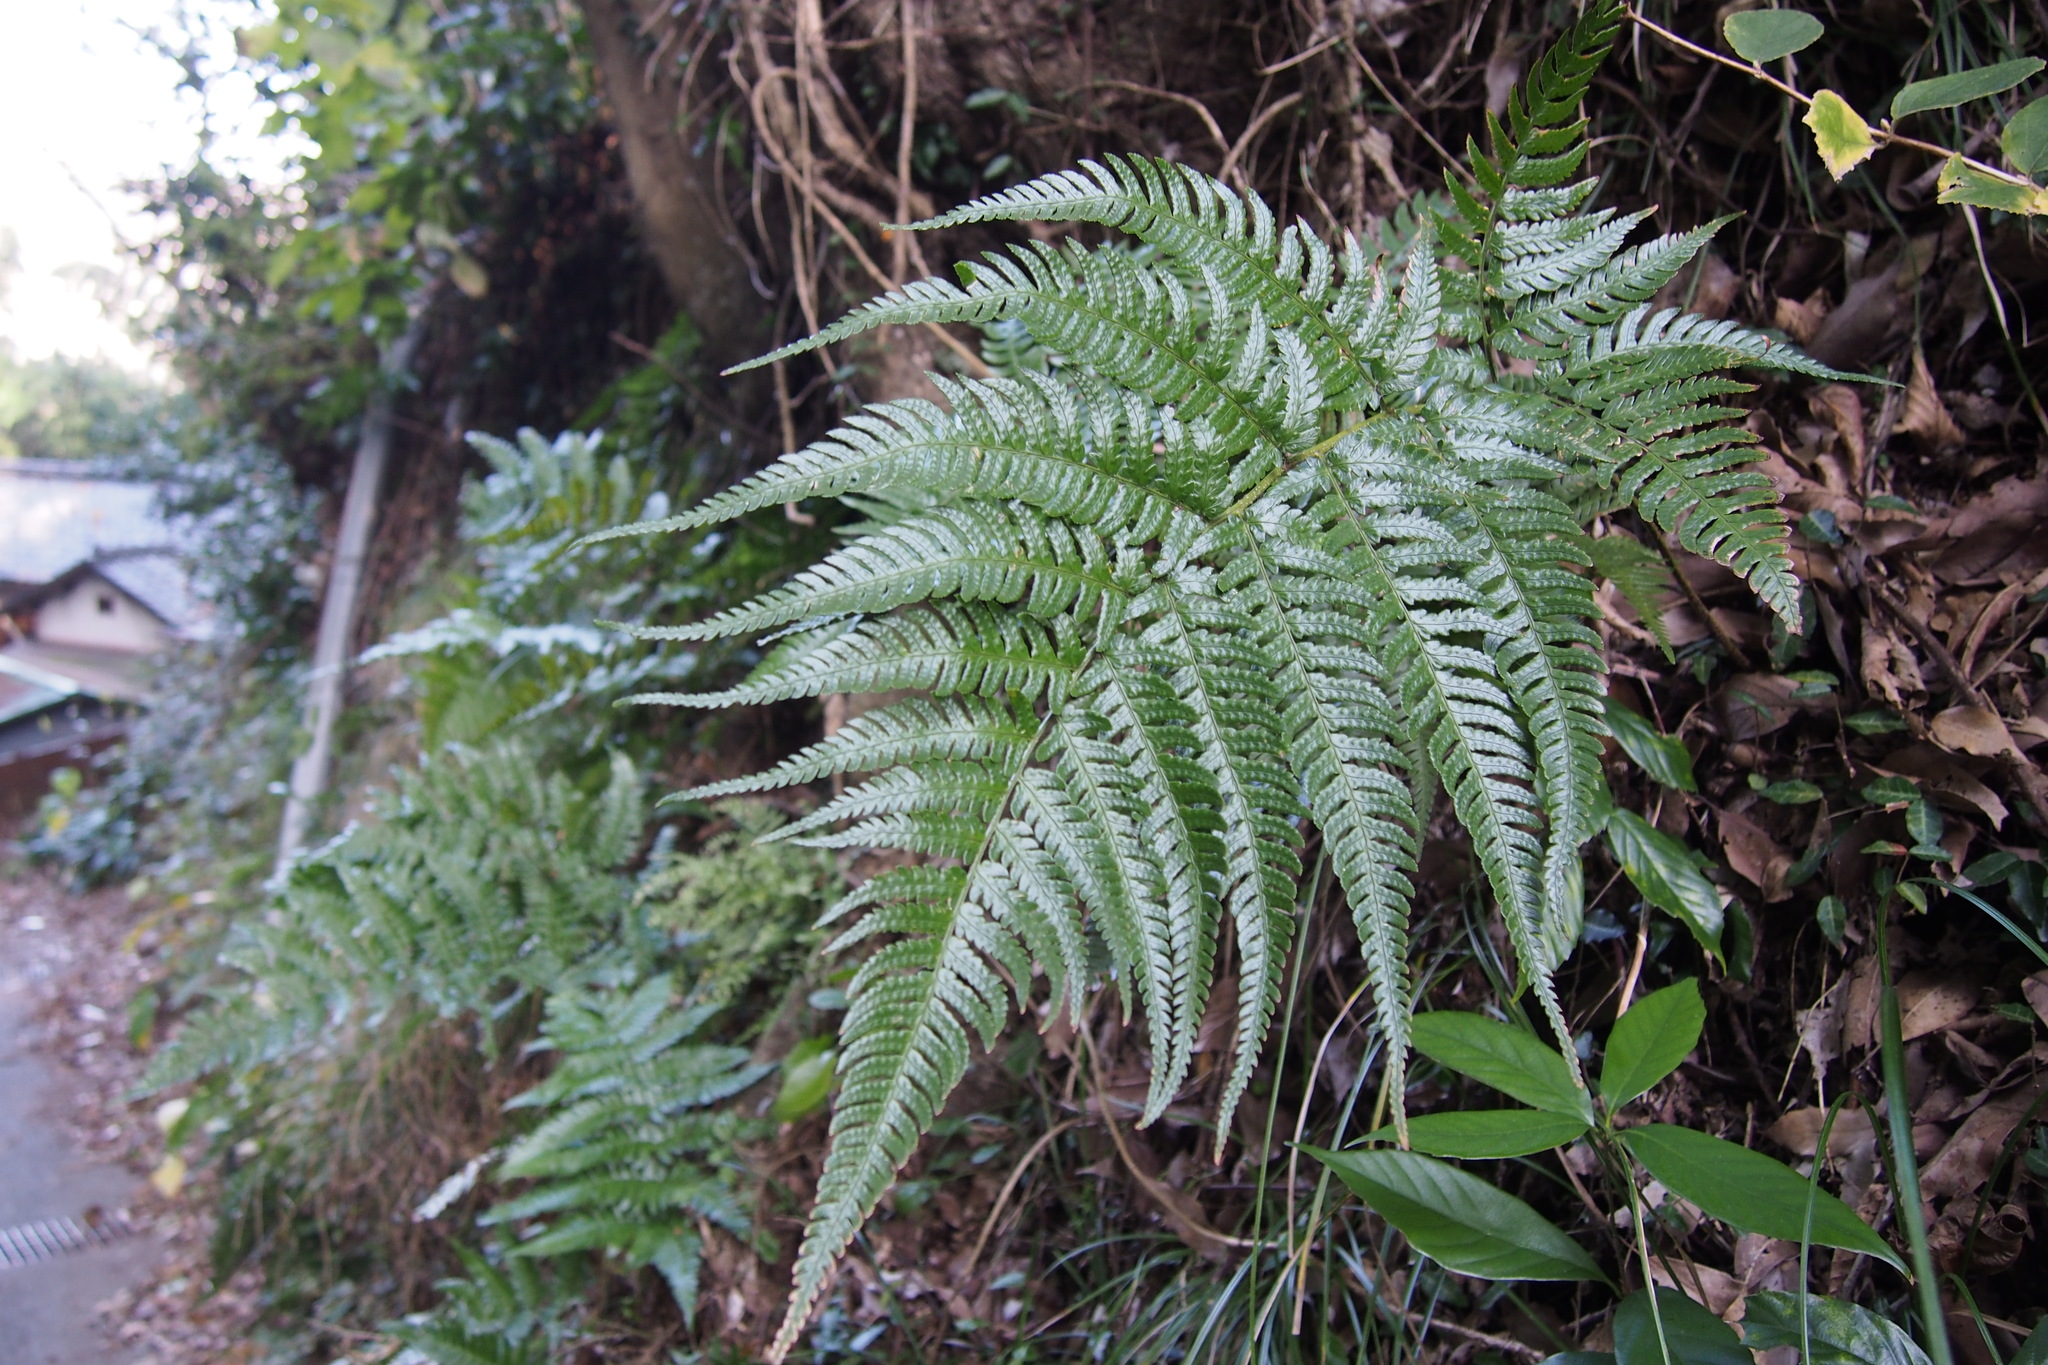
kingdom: Plantae
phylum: Tracheophyta
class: Polypodiopsida
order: Polypodiales
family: Dryopteridaceae
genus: Dryopteris
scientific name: Dryopteris varia
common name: Japanese holly fern
